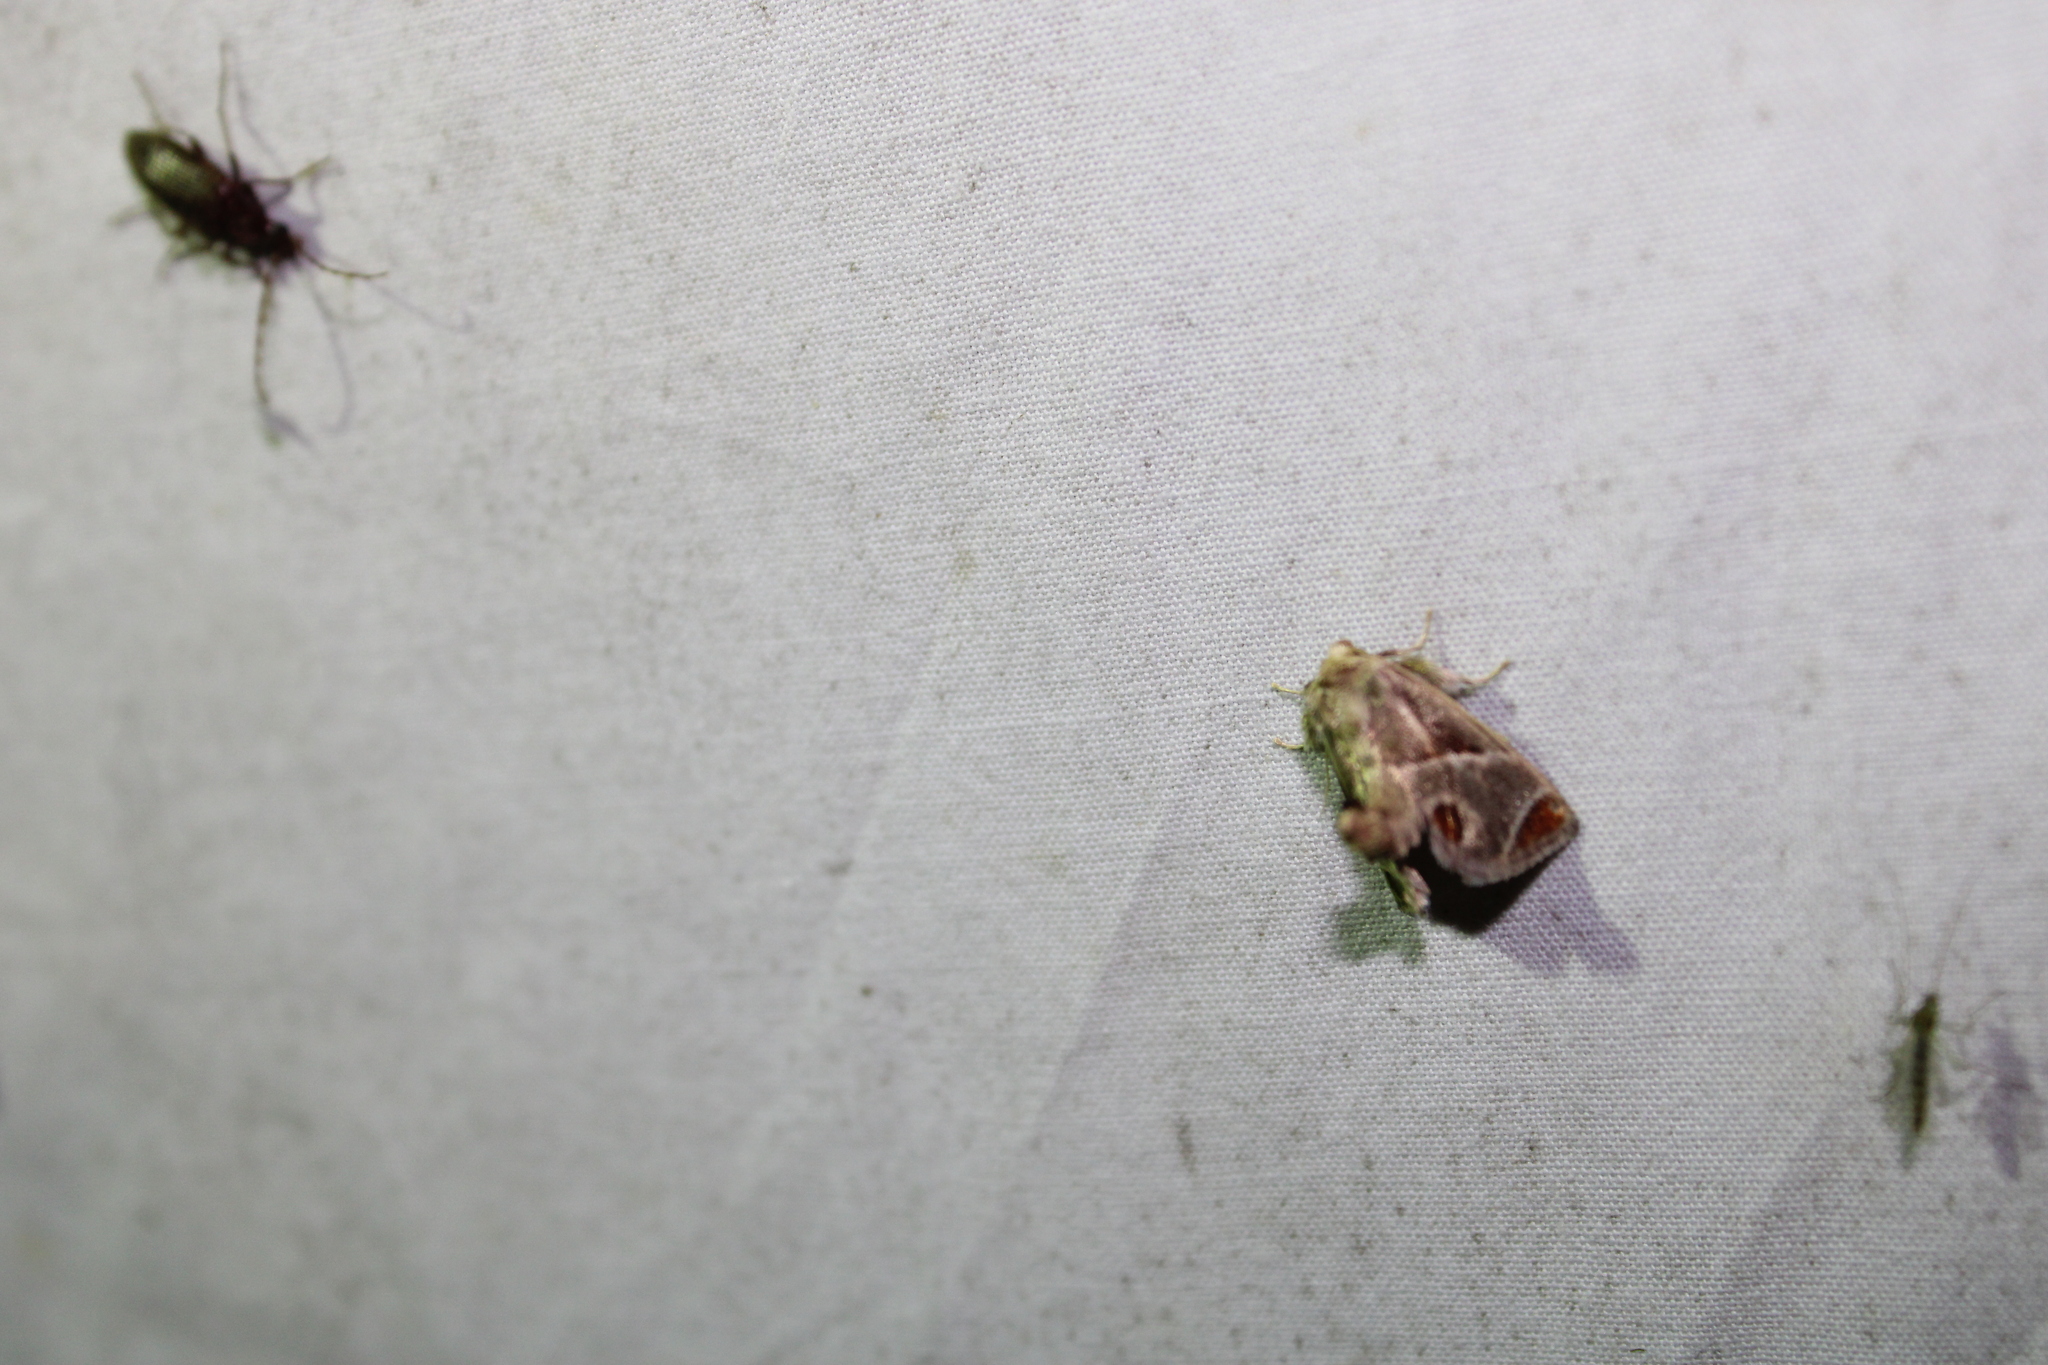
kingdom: Animalia
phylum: Arthropoda
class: Insecta
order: Lepidoptera
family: Limacodidae
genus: Apoda
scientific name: Apoda biguttata
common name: Shagreened slug moth
